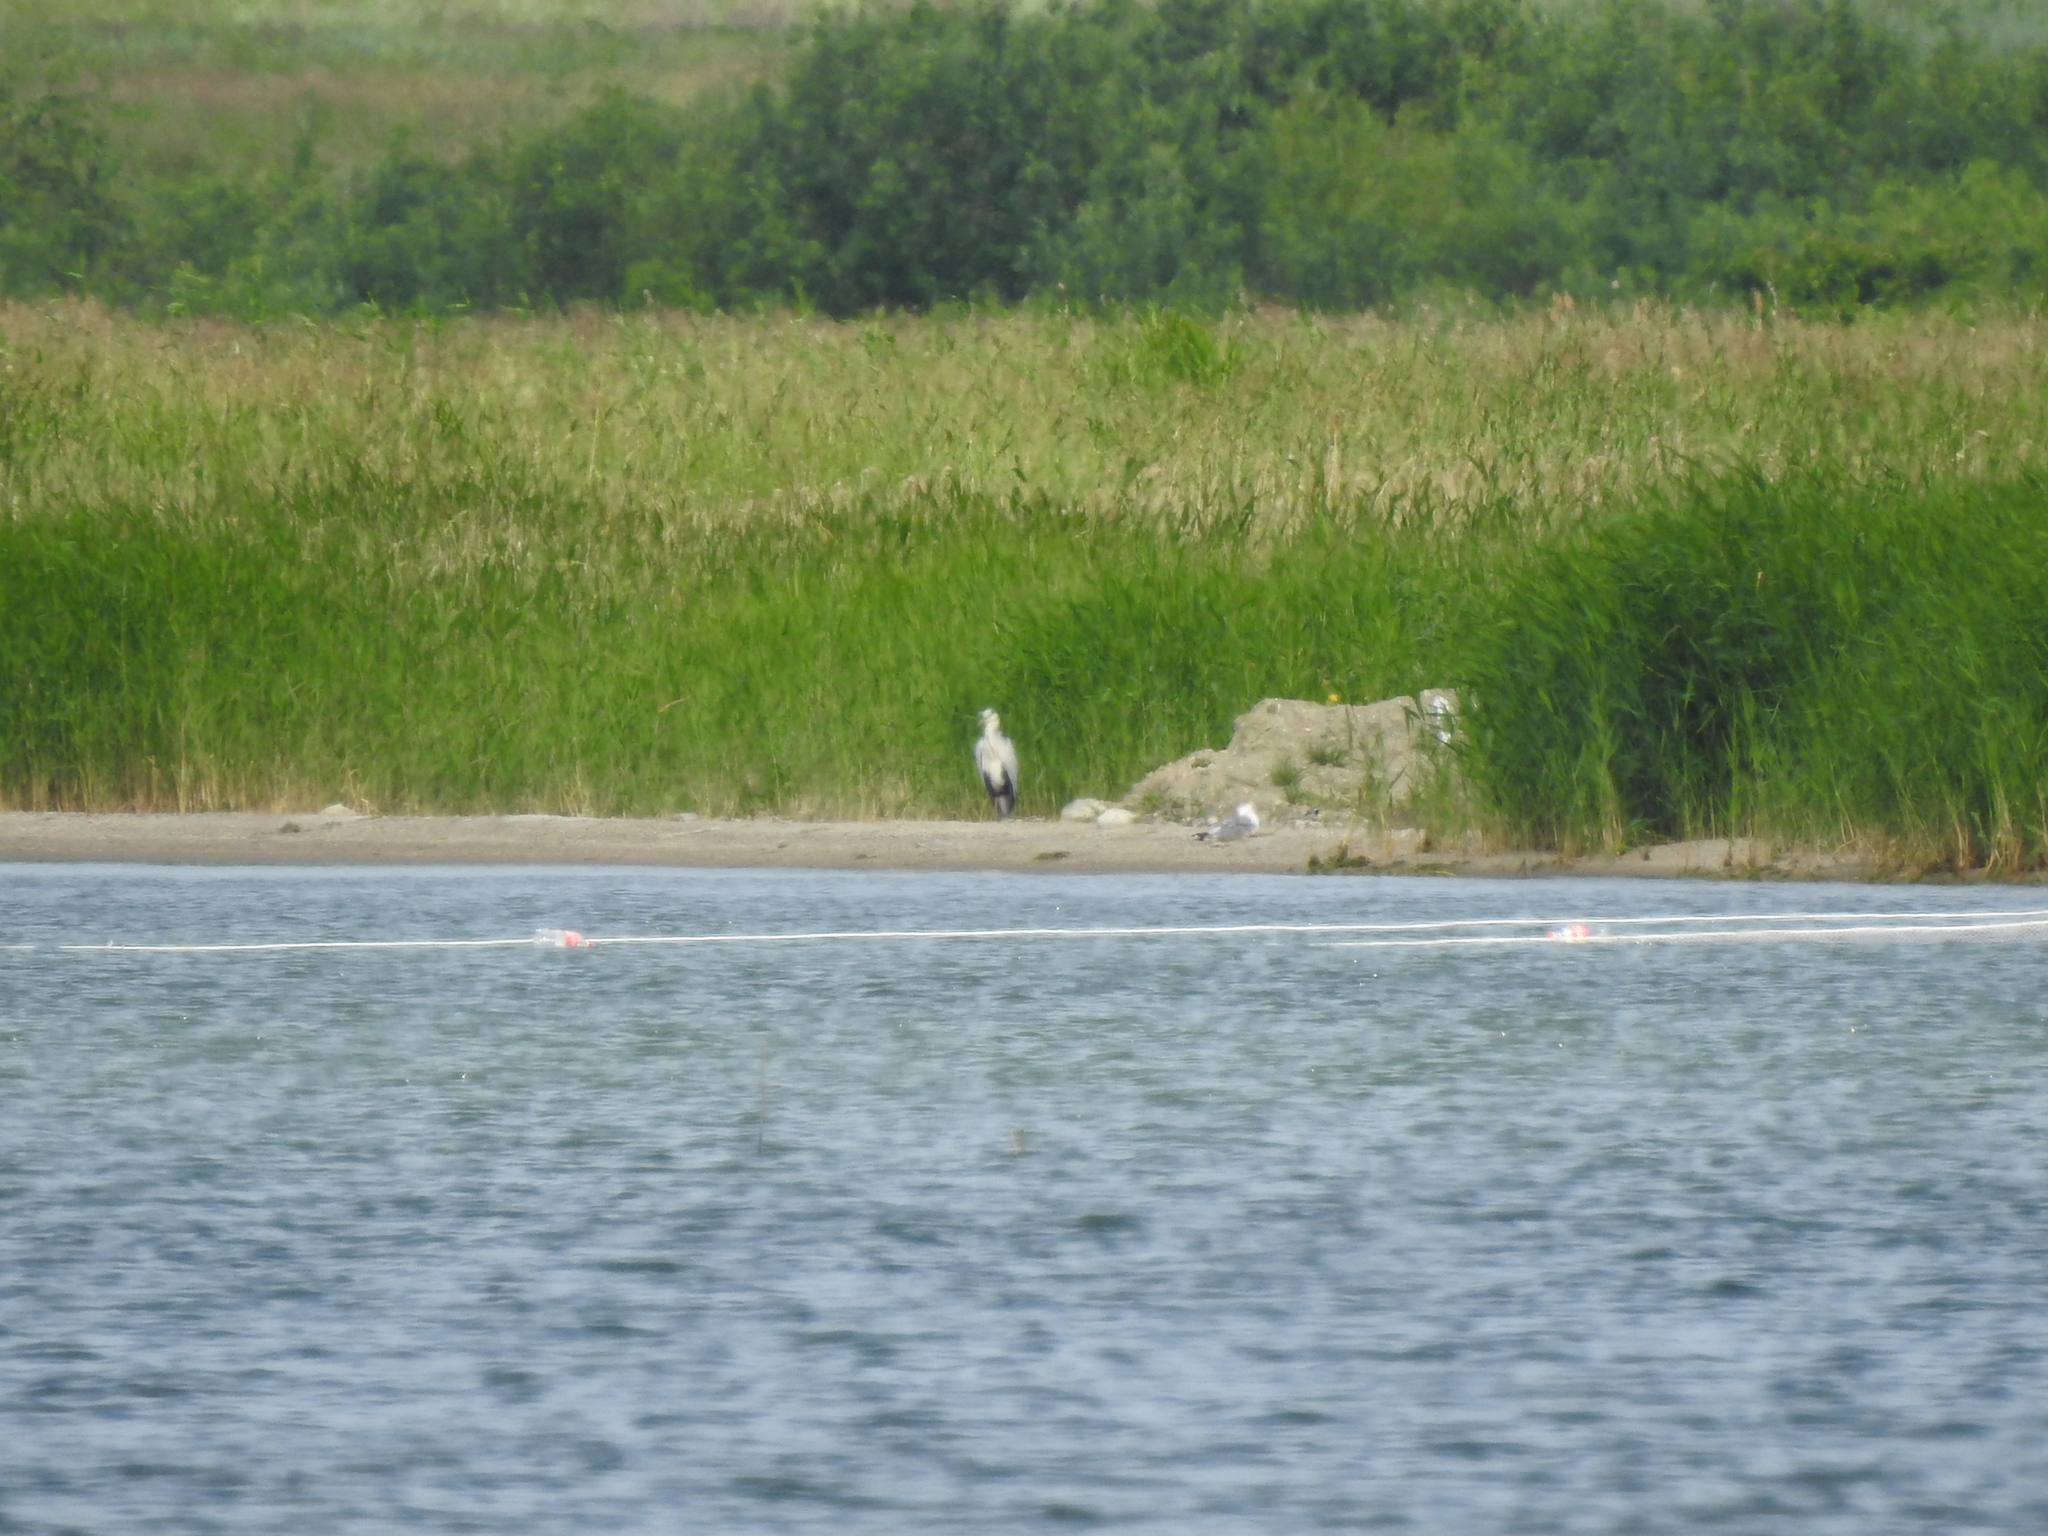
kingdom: Animalia
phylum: Chordata
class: Aves
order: Pelecaniformes
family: Ardeidae
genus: Ardea
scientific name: Ardea cinerea
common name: Grey heron
